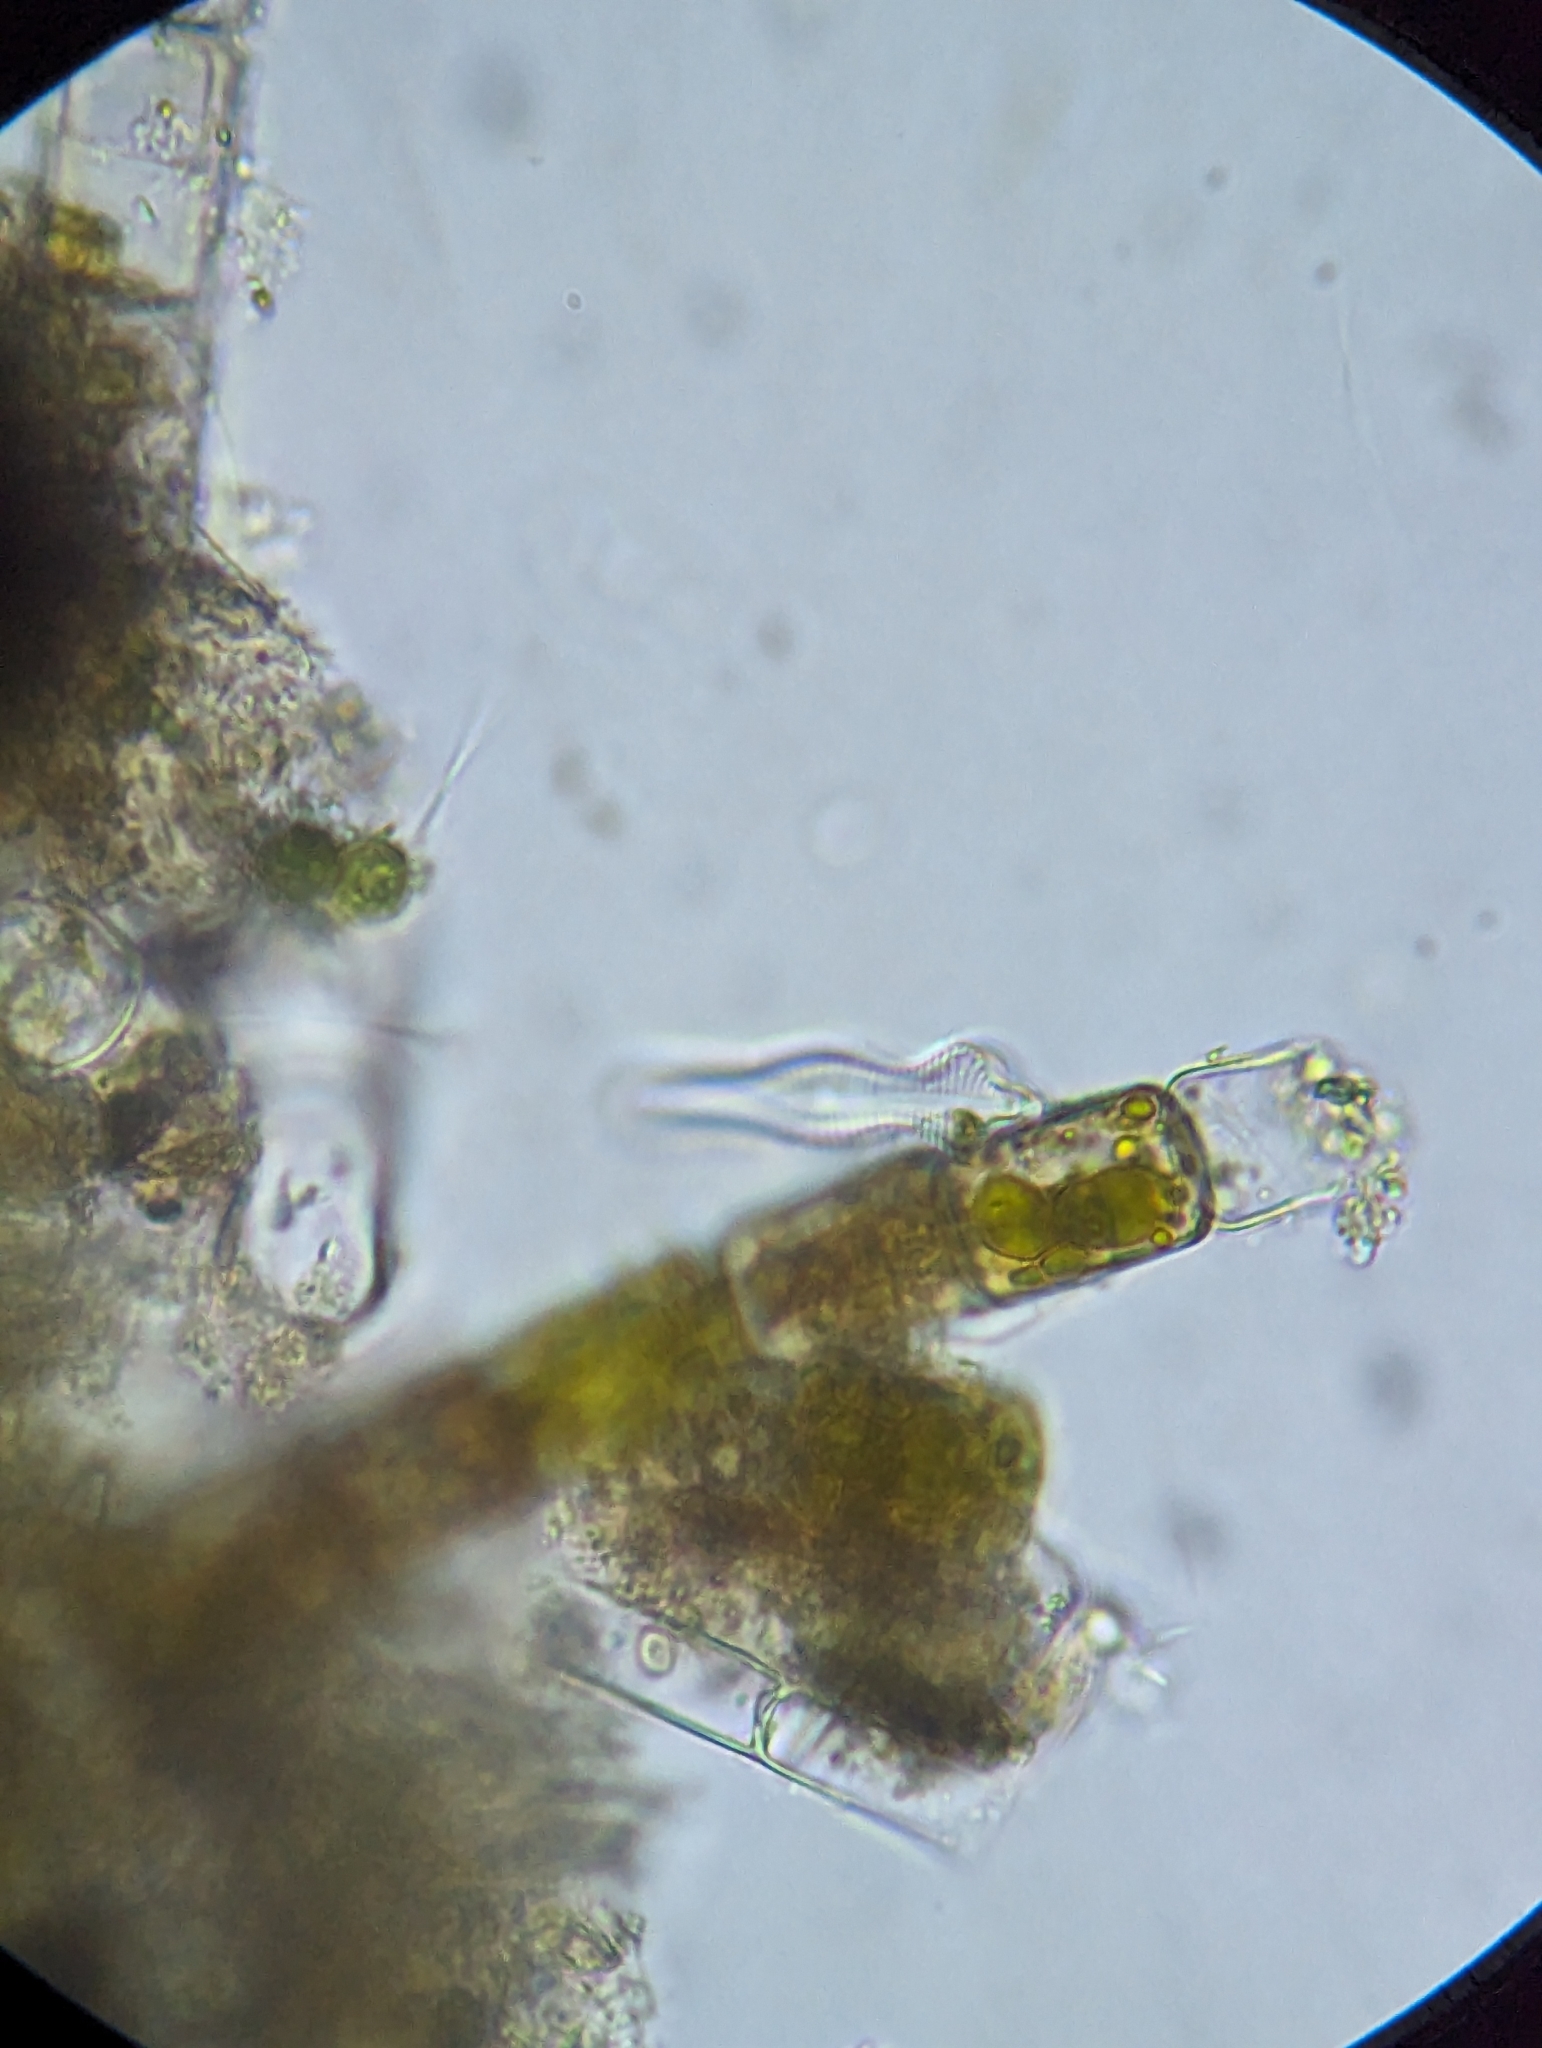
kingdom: Chromista
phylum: Ochrophyta
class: Bacillariophyceae
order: Cymbellales
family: Gomphonemataceae
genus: Gomphonema
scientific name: Gomphonema acuminatum
